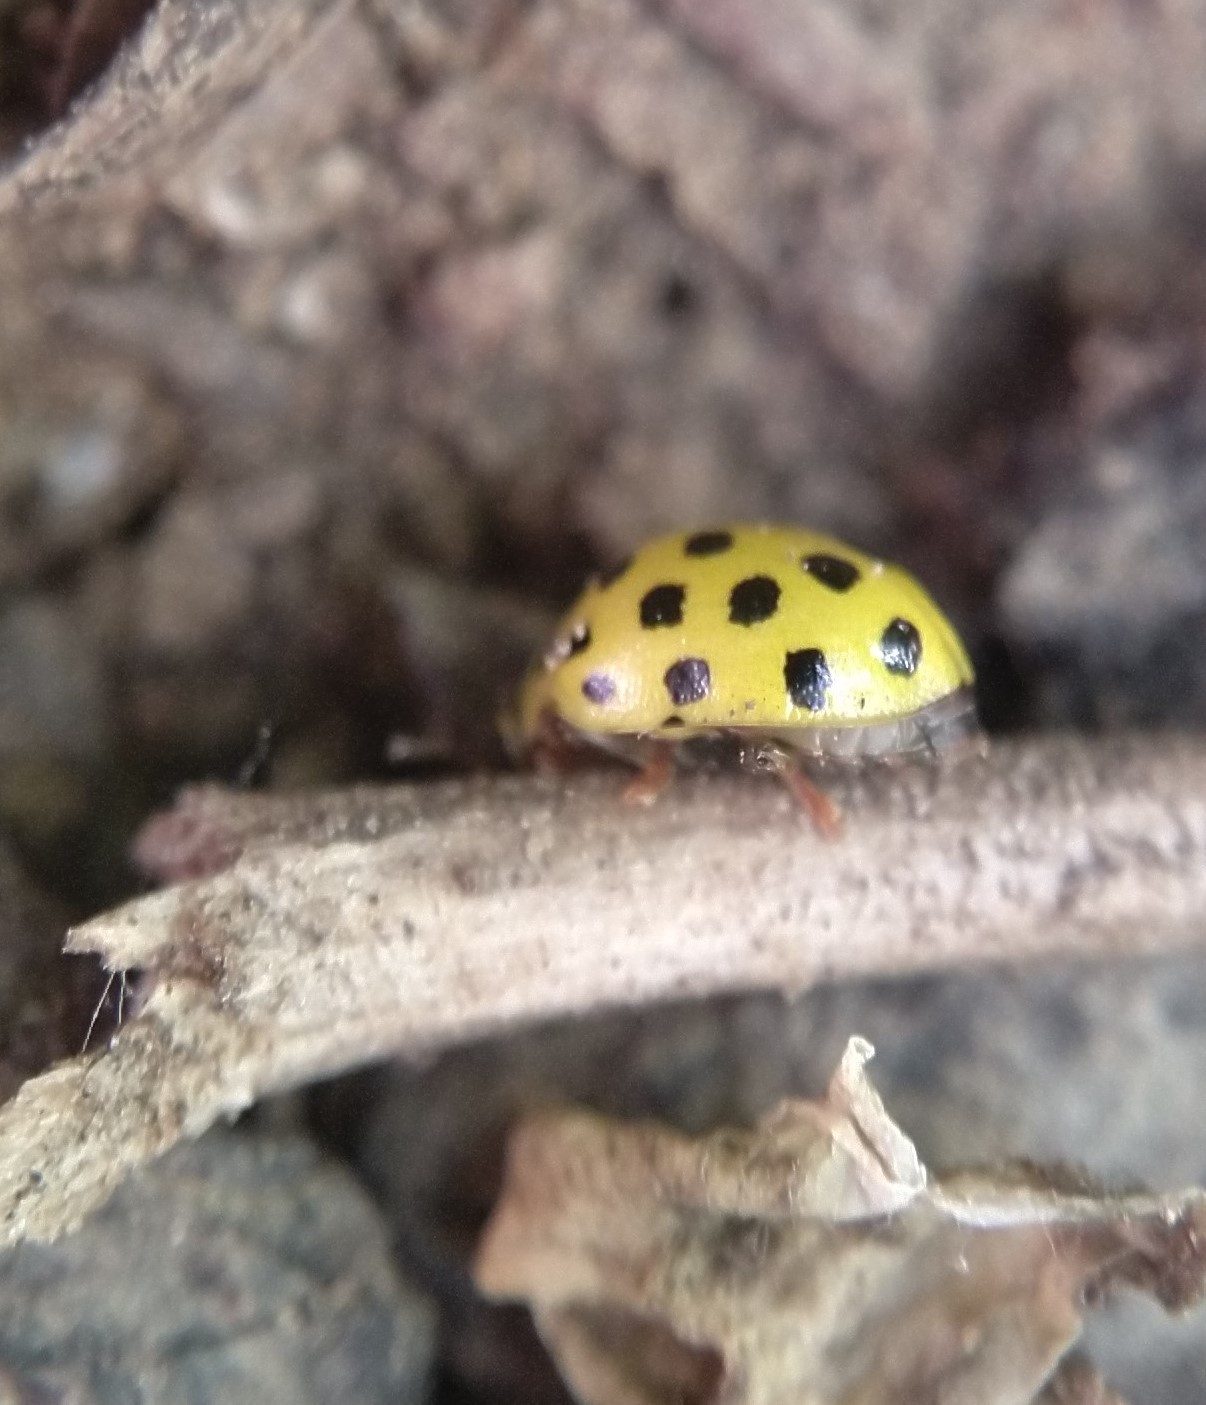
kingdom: Animalia
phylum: Arthropoda
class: Insecta
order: Coleoptera
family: Coccinellidae
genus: Psyllobora
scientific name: Psyllobora vigintiduopunctata
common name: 22-spot ladybird
